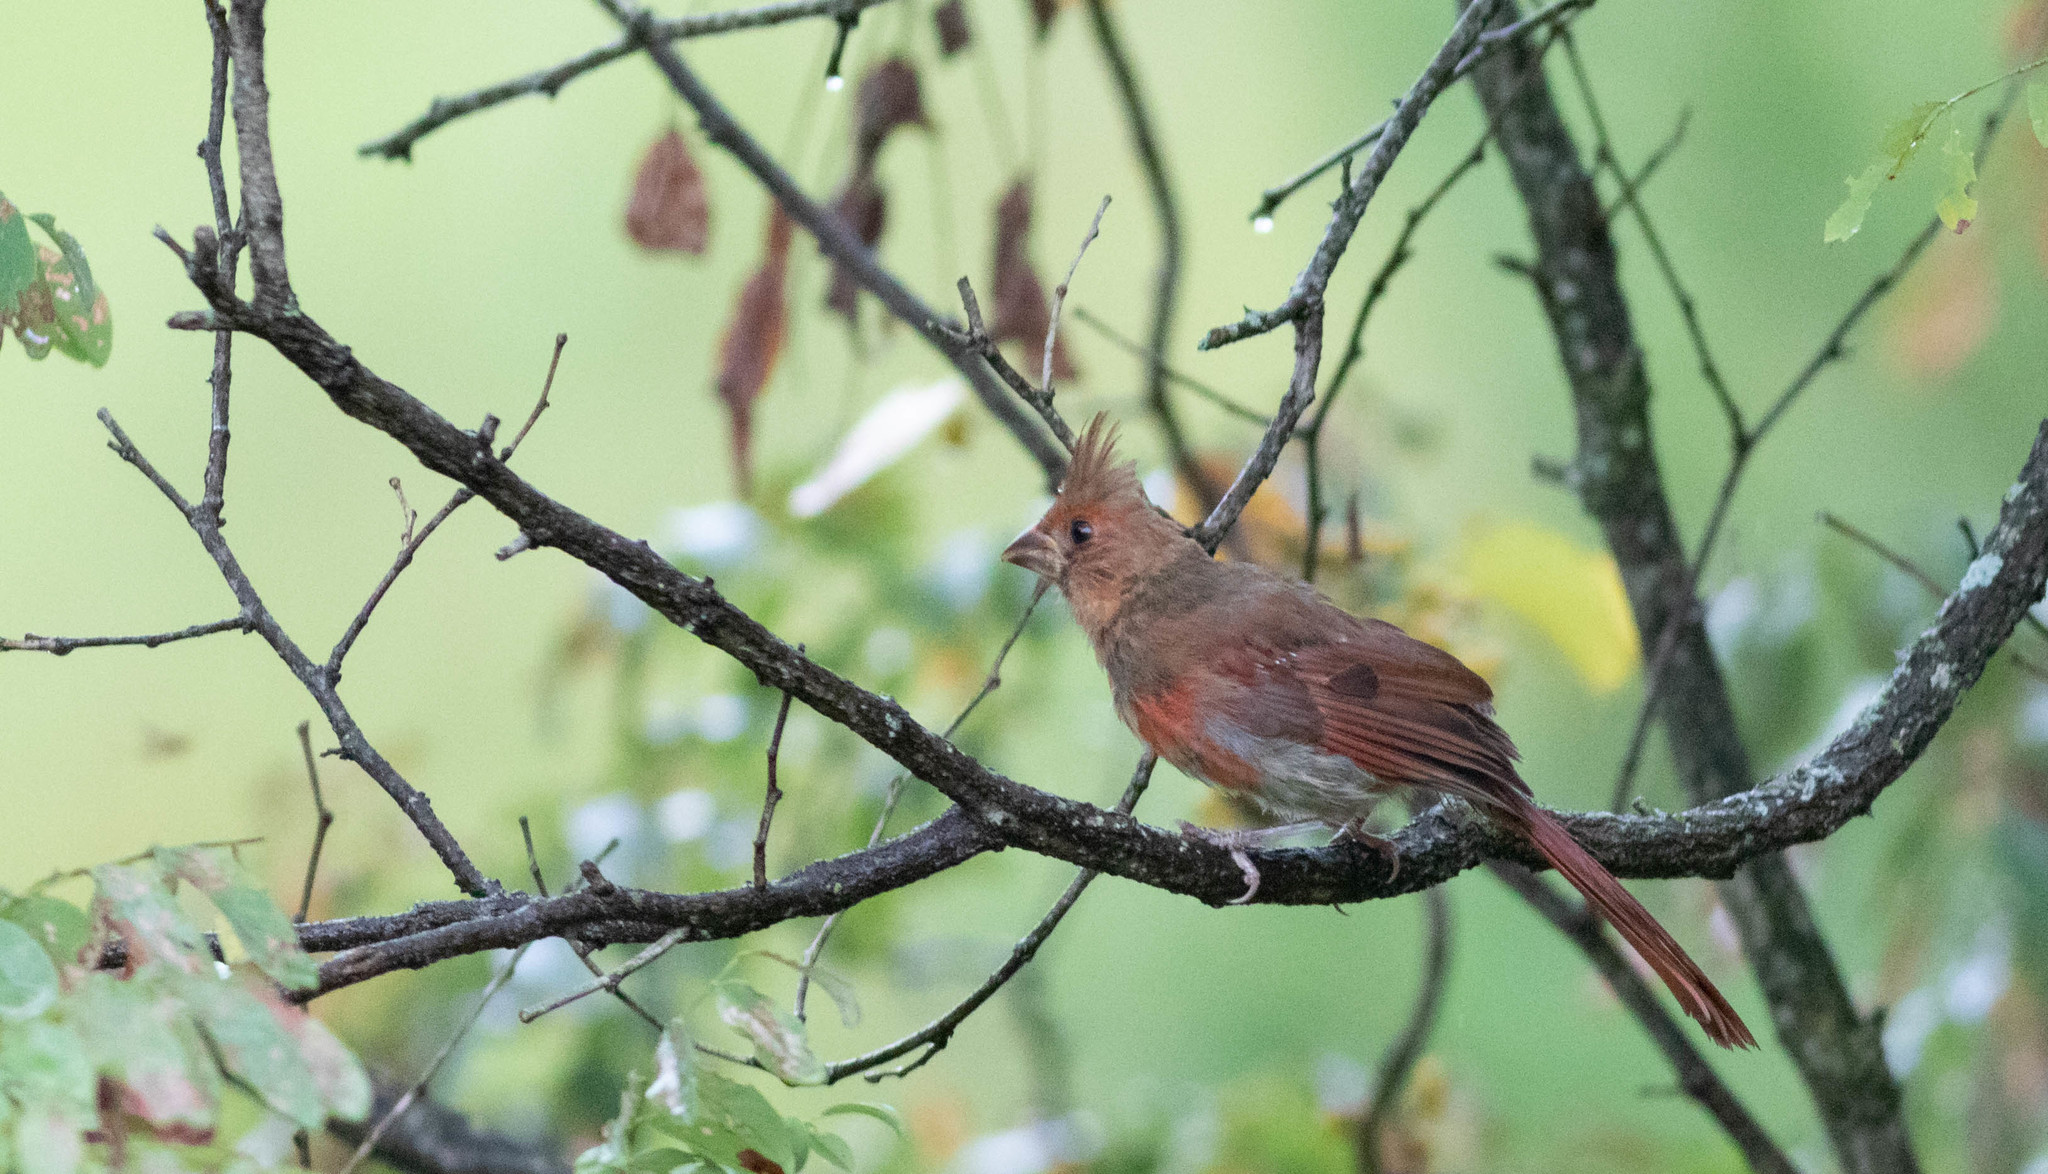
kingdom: Animalia
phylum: Chordata
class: Aves
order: Passeriformes
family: Cardinalidae
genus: Cardinalis
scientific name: Cardinalis cardinalis
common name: Northern cardinal
